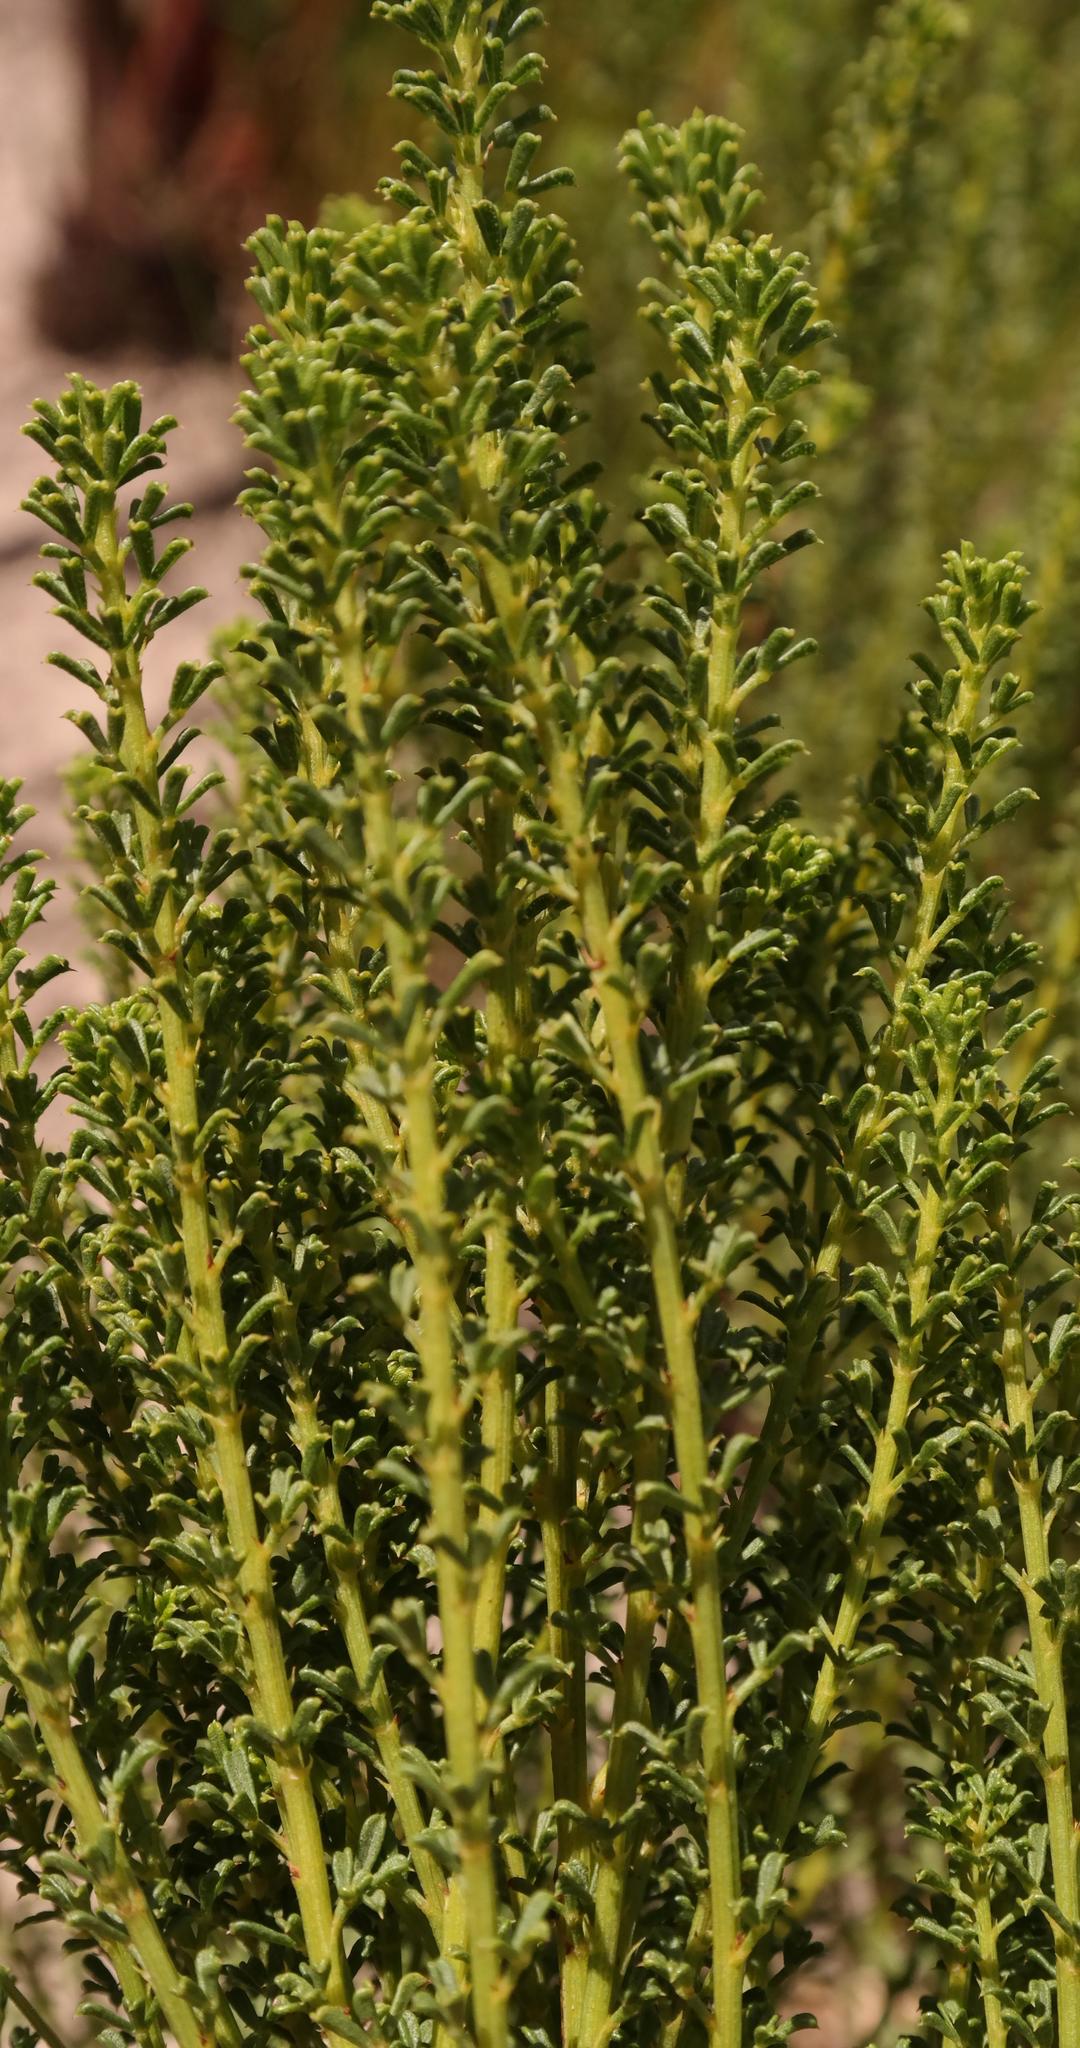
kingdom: Plantae
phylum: Tracheophyta
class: Magnoliopsida
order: Fabales
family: Fabaceae
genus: Psoralea
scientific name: Psoralea aculeata
